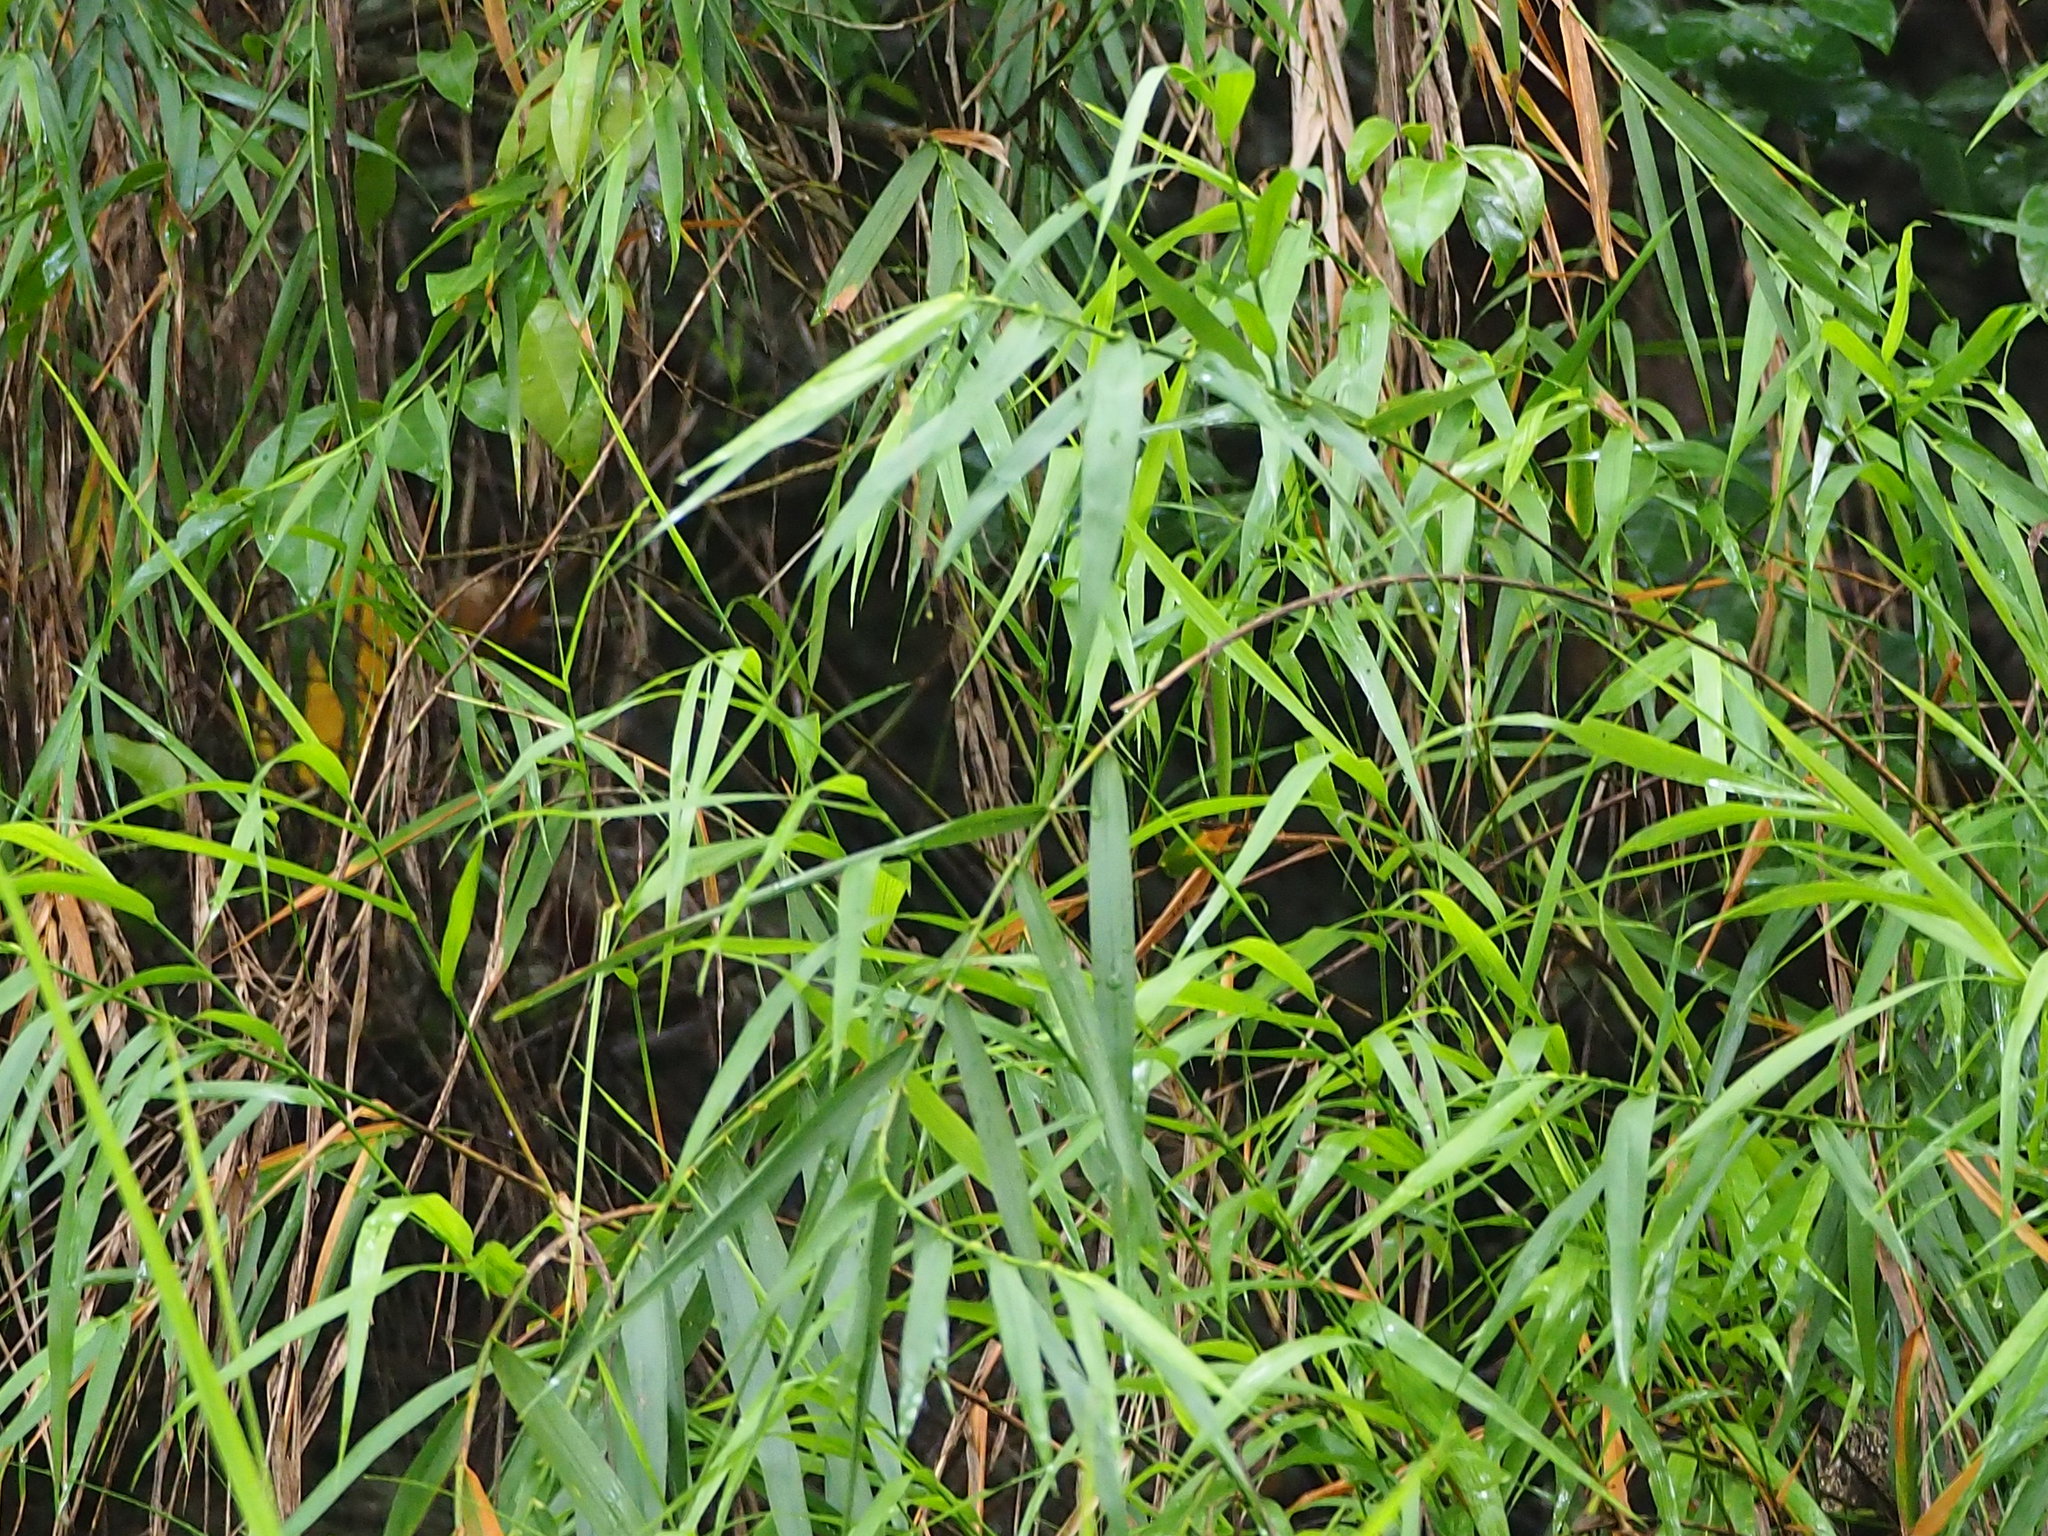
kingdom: Plantae
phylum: Tracheophyta
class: Liliopsida
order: Poales
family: Poaceae
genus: Arundo
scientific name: Arundo formosana
